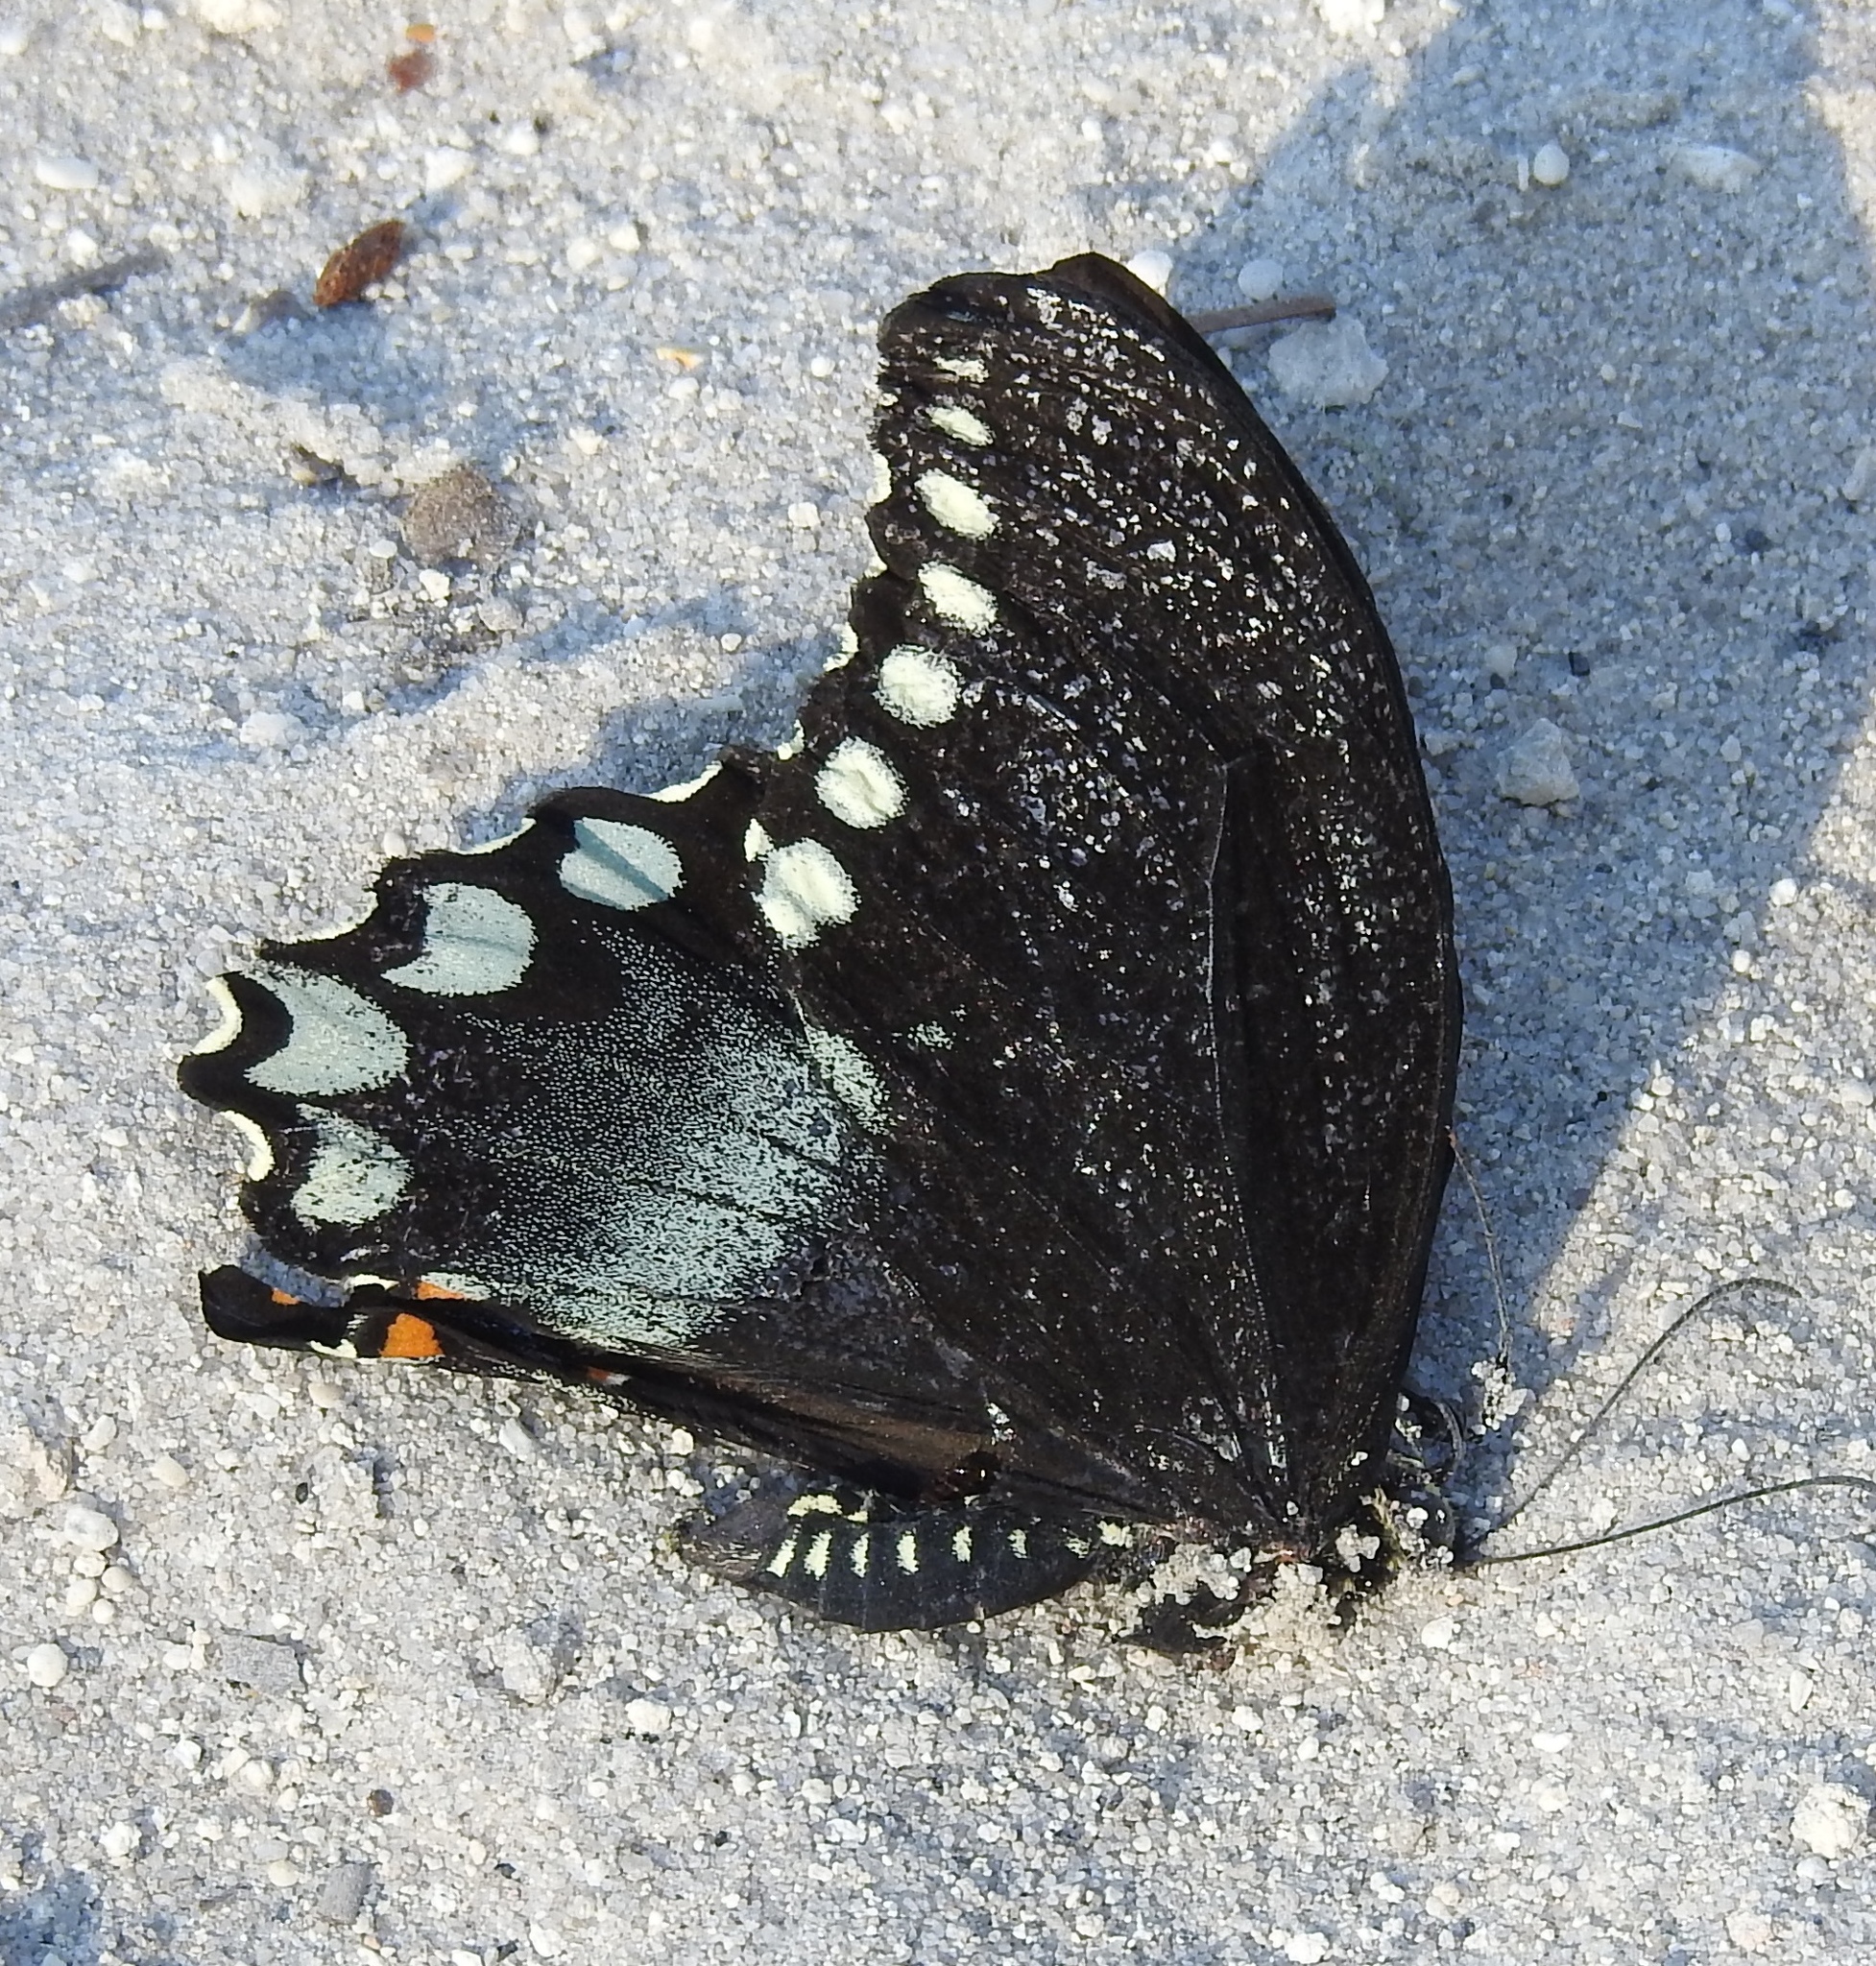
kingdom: Animalia
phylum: Arthropoda
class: Insecta
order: Lepidoptera
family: Papilionidae
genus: Papilio
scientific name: Papilio troilus
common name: Spicebush swallowtail
